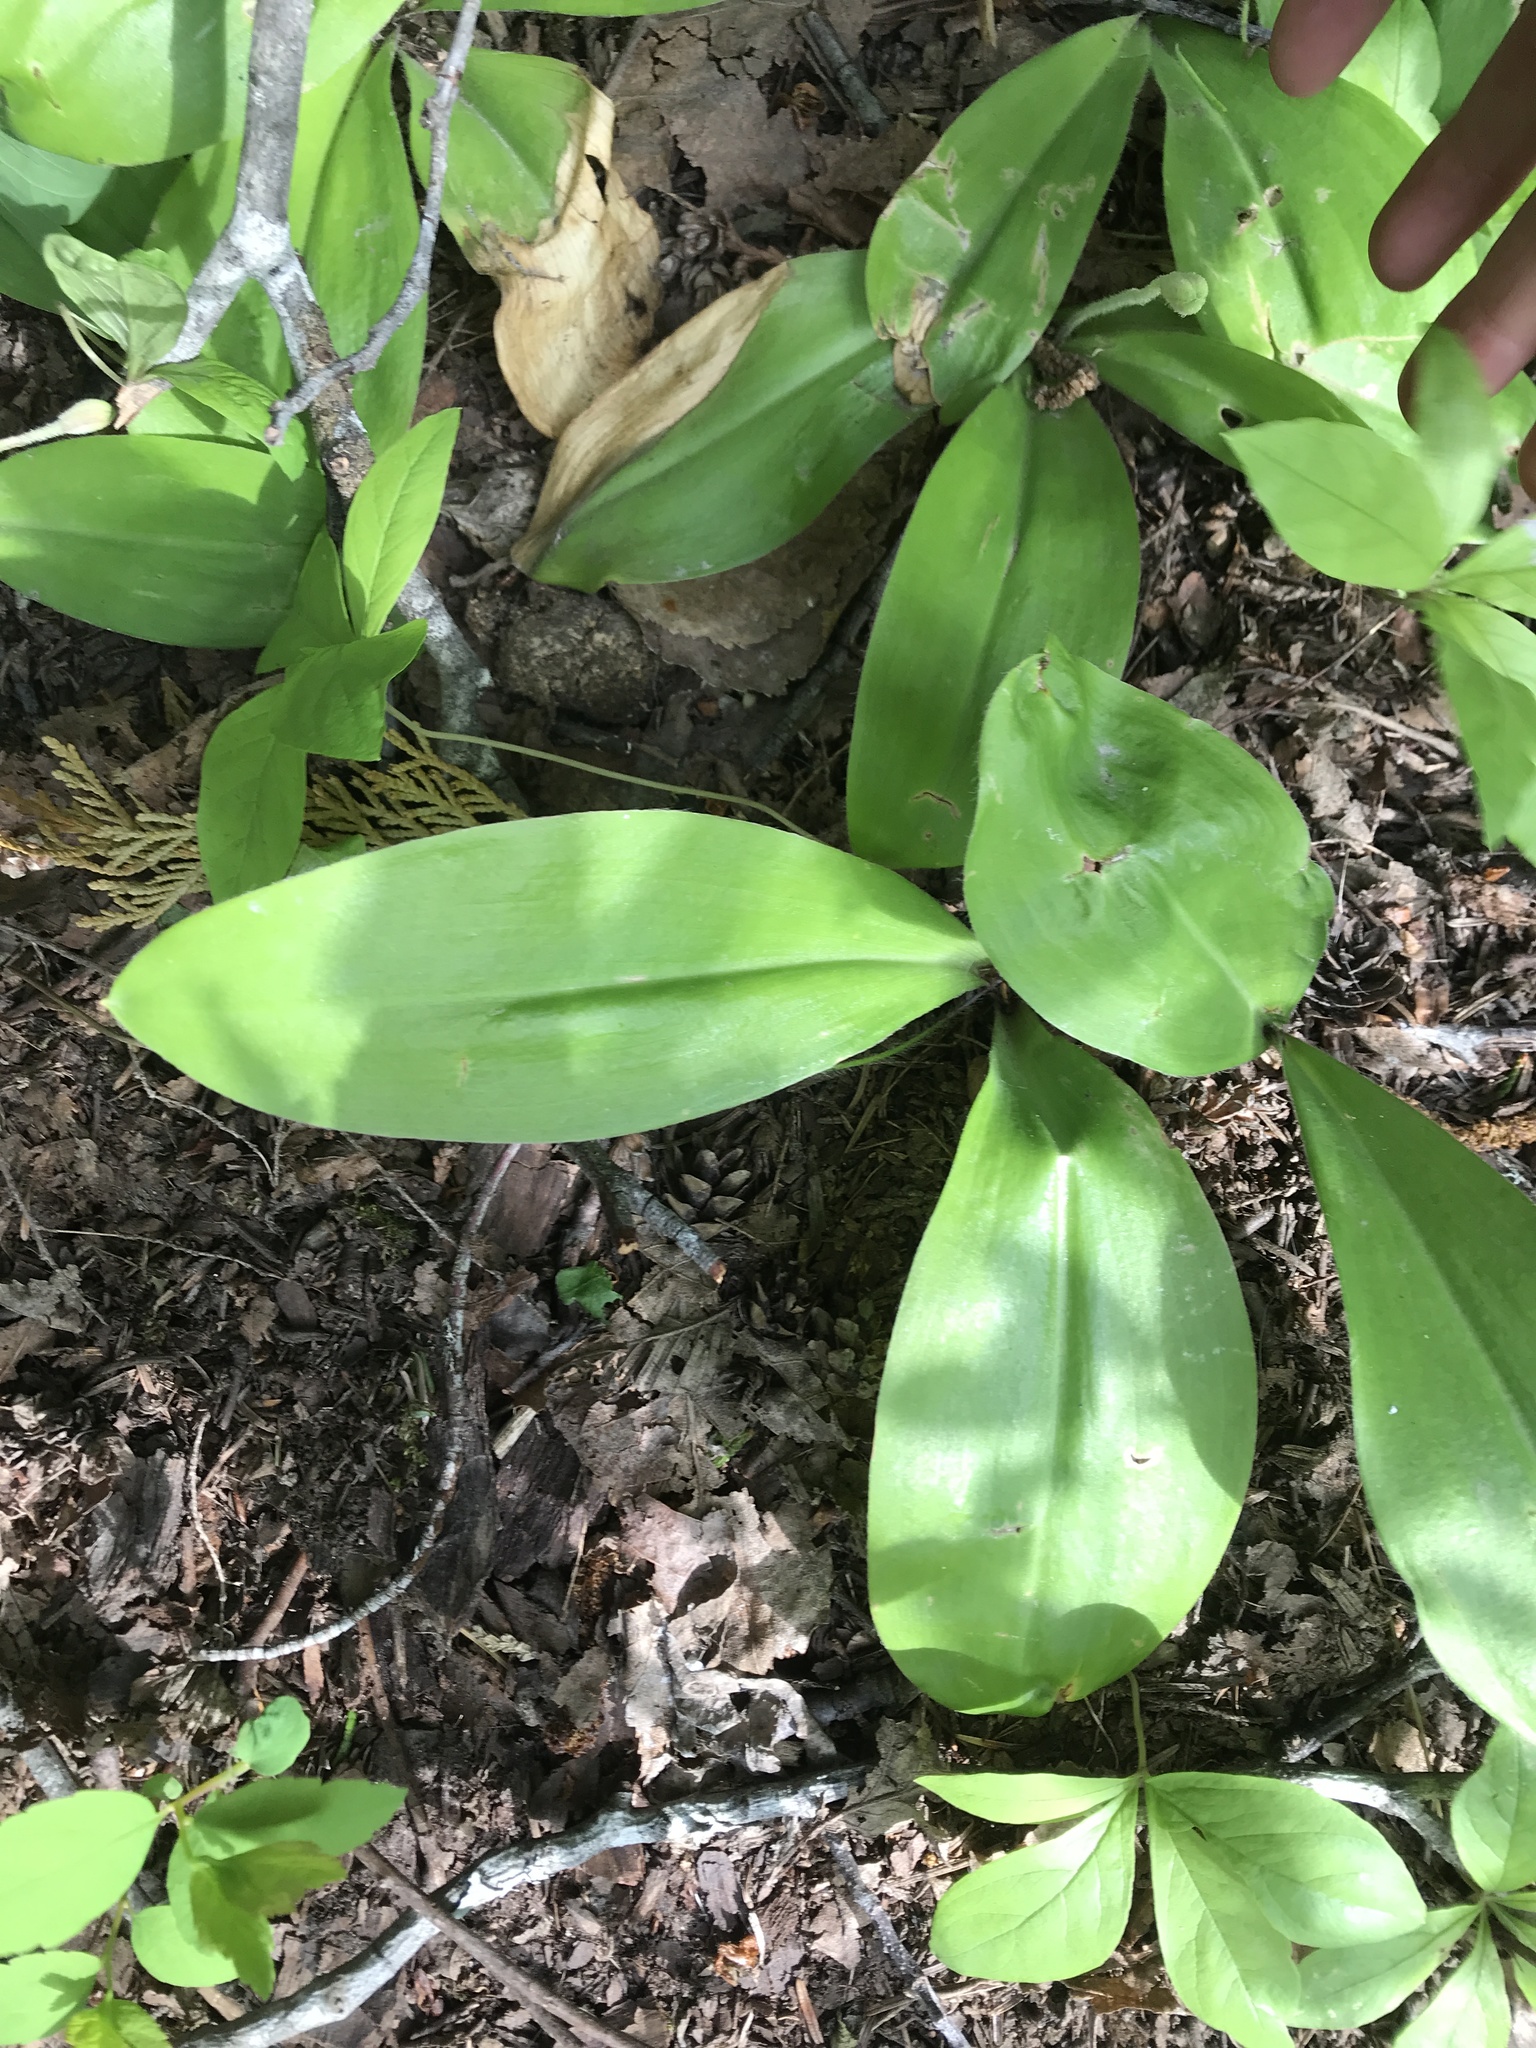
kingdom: Plantae
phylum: Tracheophyta
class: Liliopsida
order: Liliales
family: Liliaceae
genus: Clintonia
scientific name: Clintonia uniflora
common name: Queen's cup
